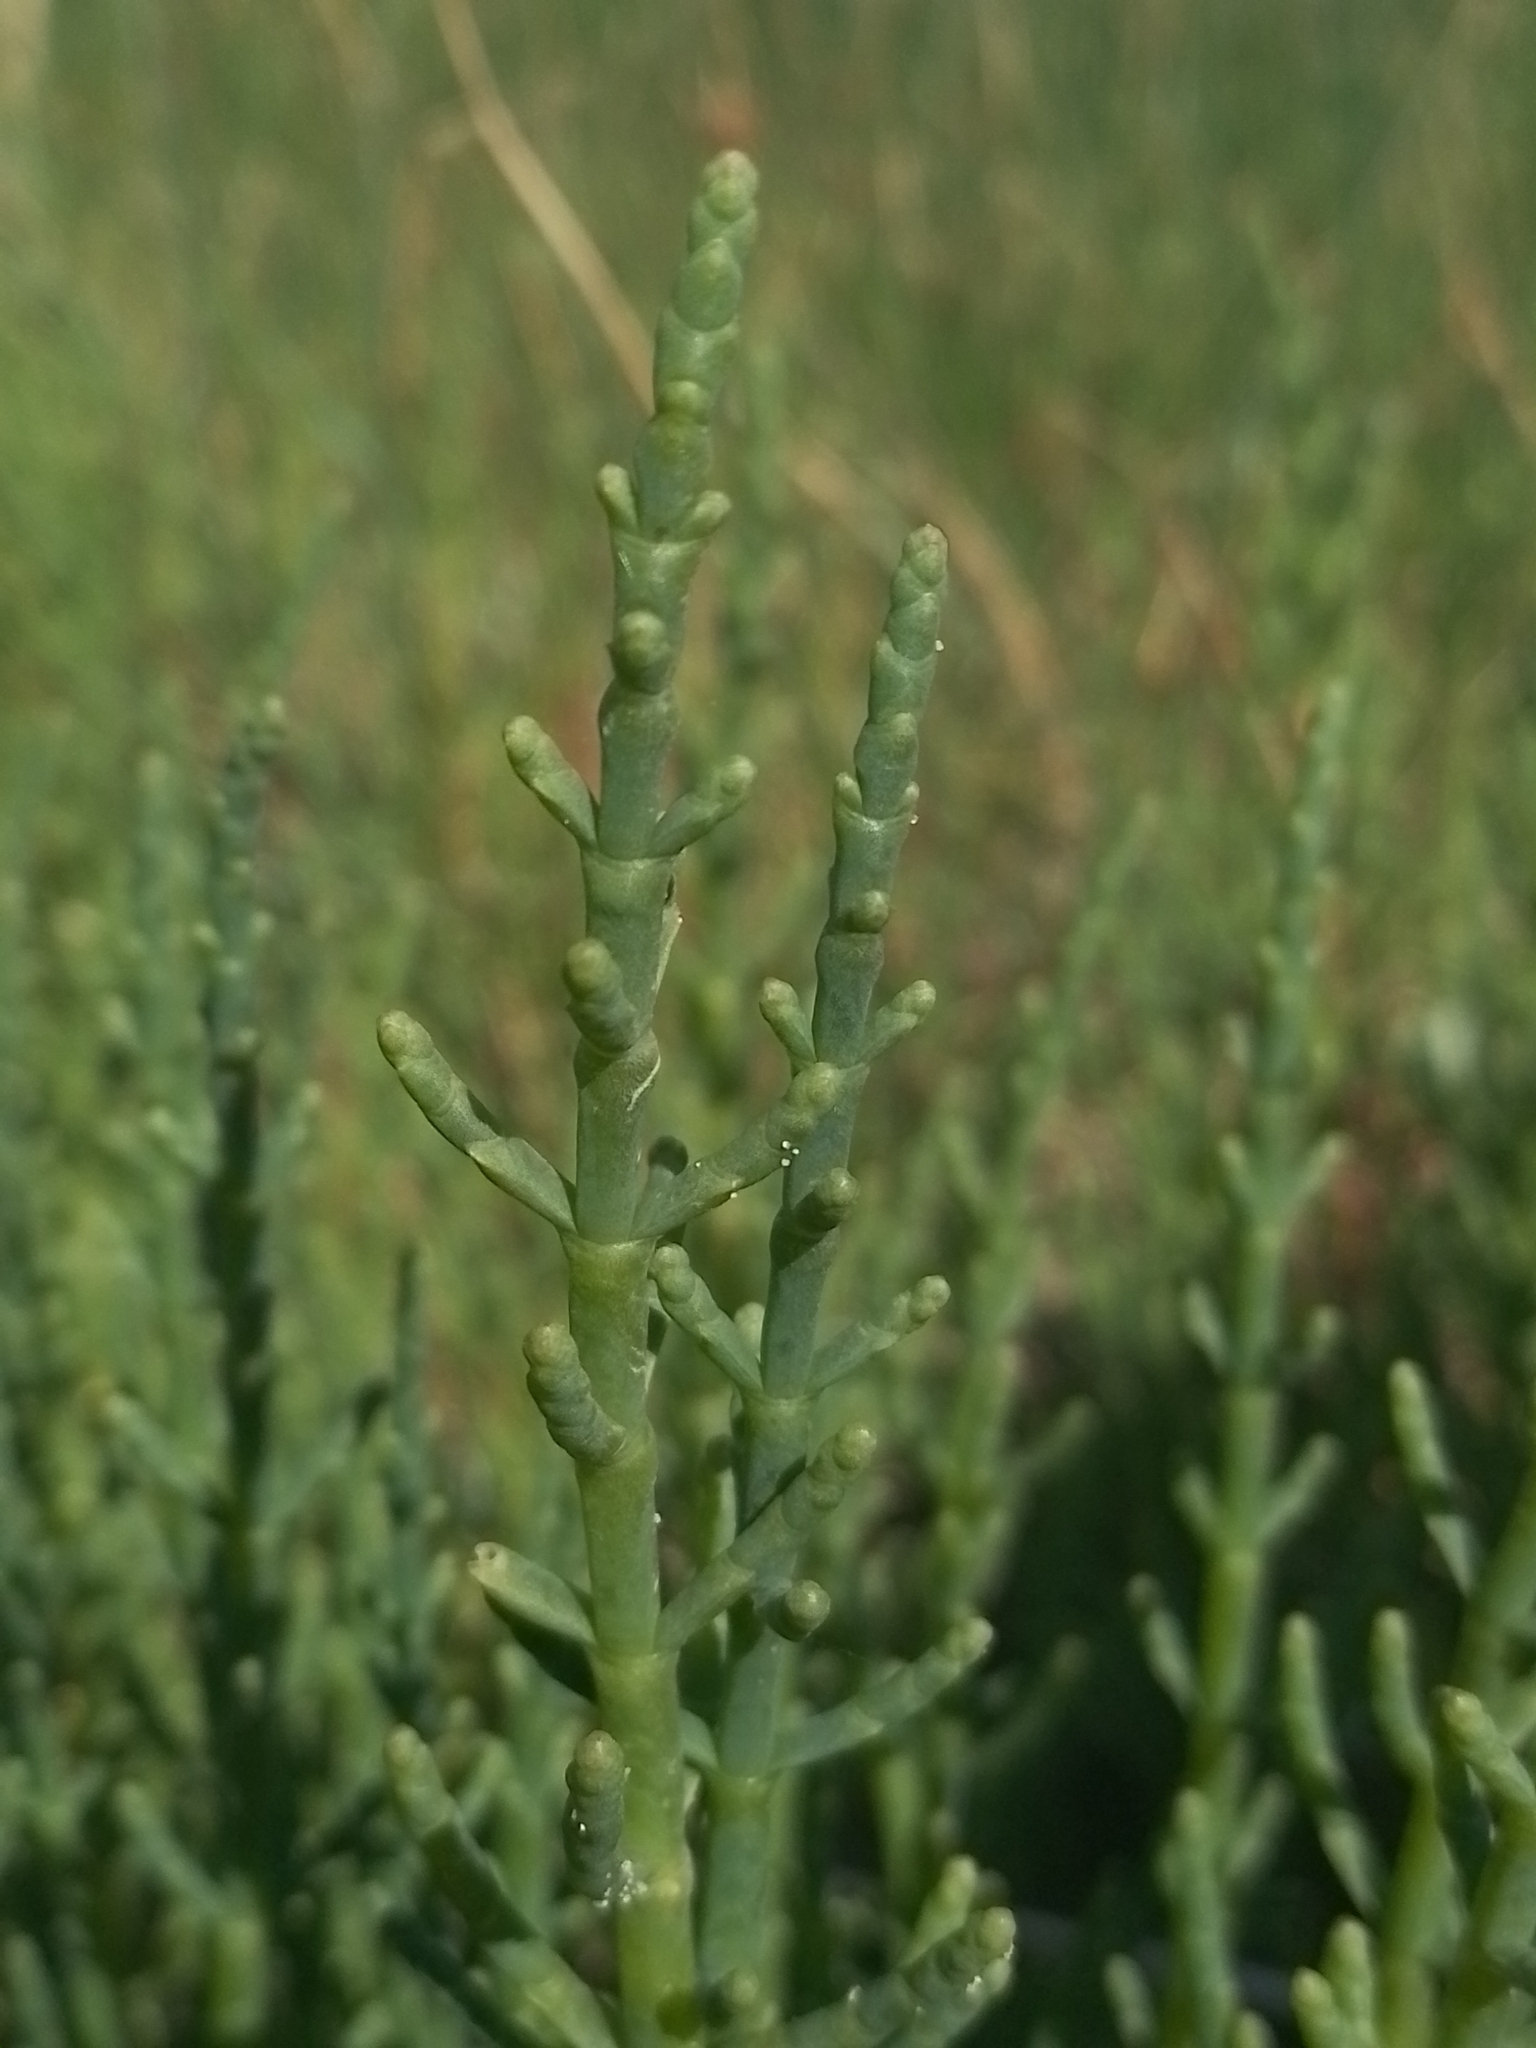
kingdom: Plantae
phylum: Tracheophyta
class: Magnoliopsida
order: Caryophyllales
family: Amaranthaceae
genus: Salicornia
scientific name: Salicornia ambigua
